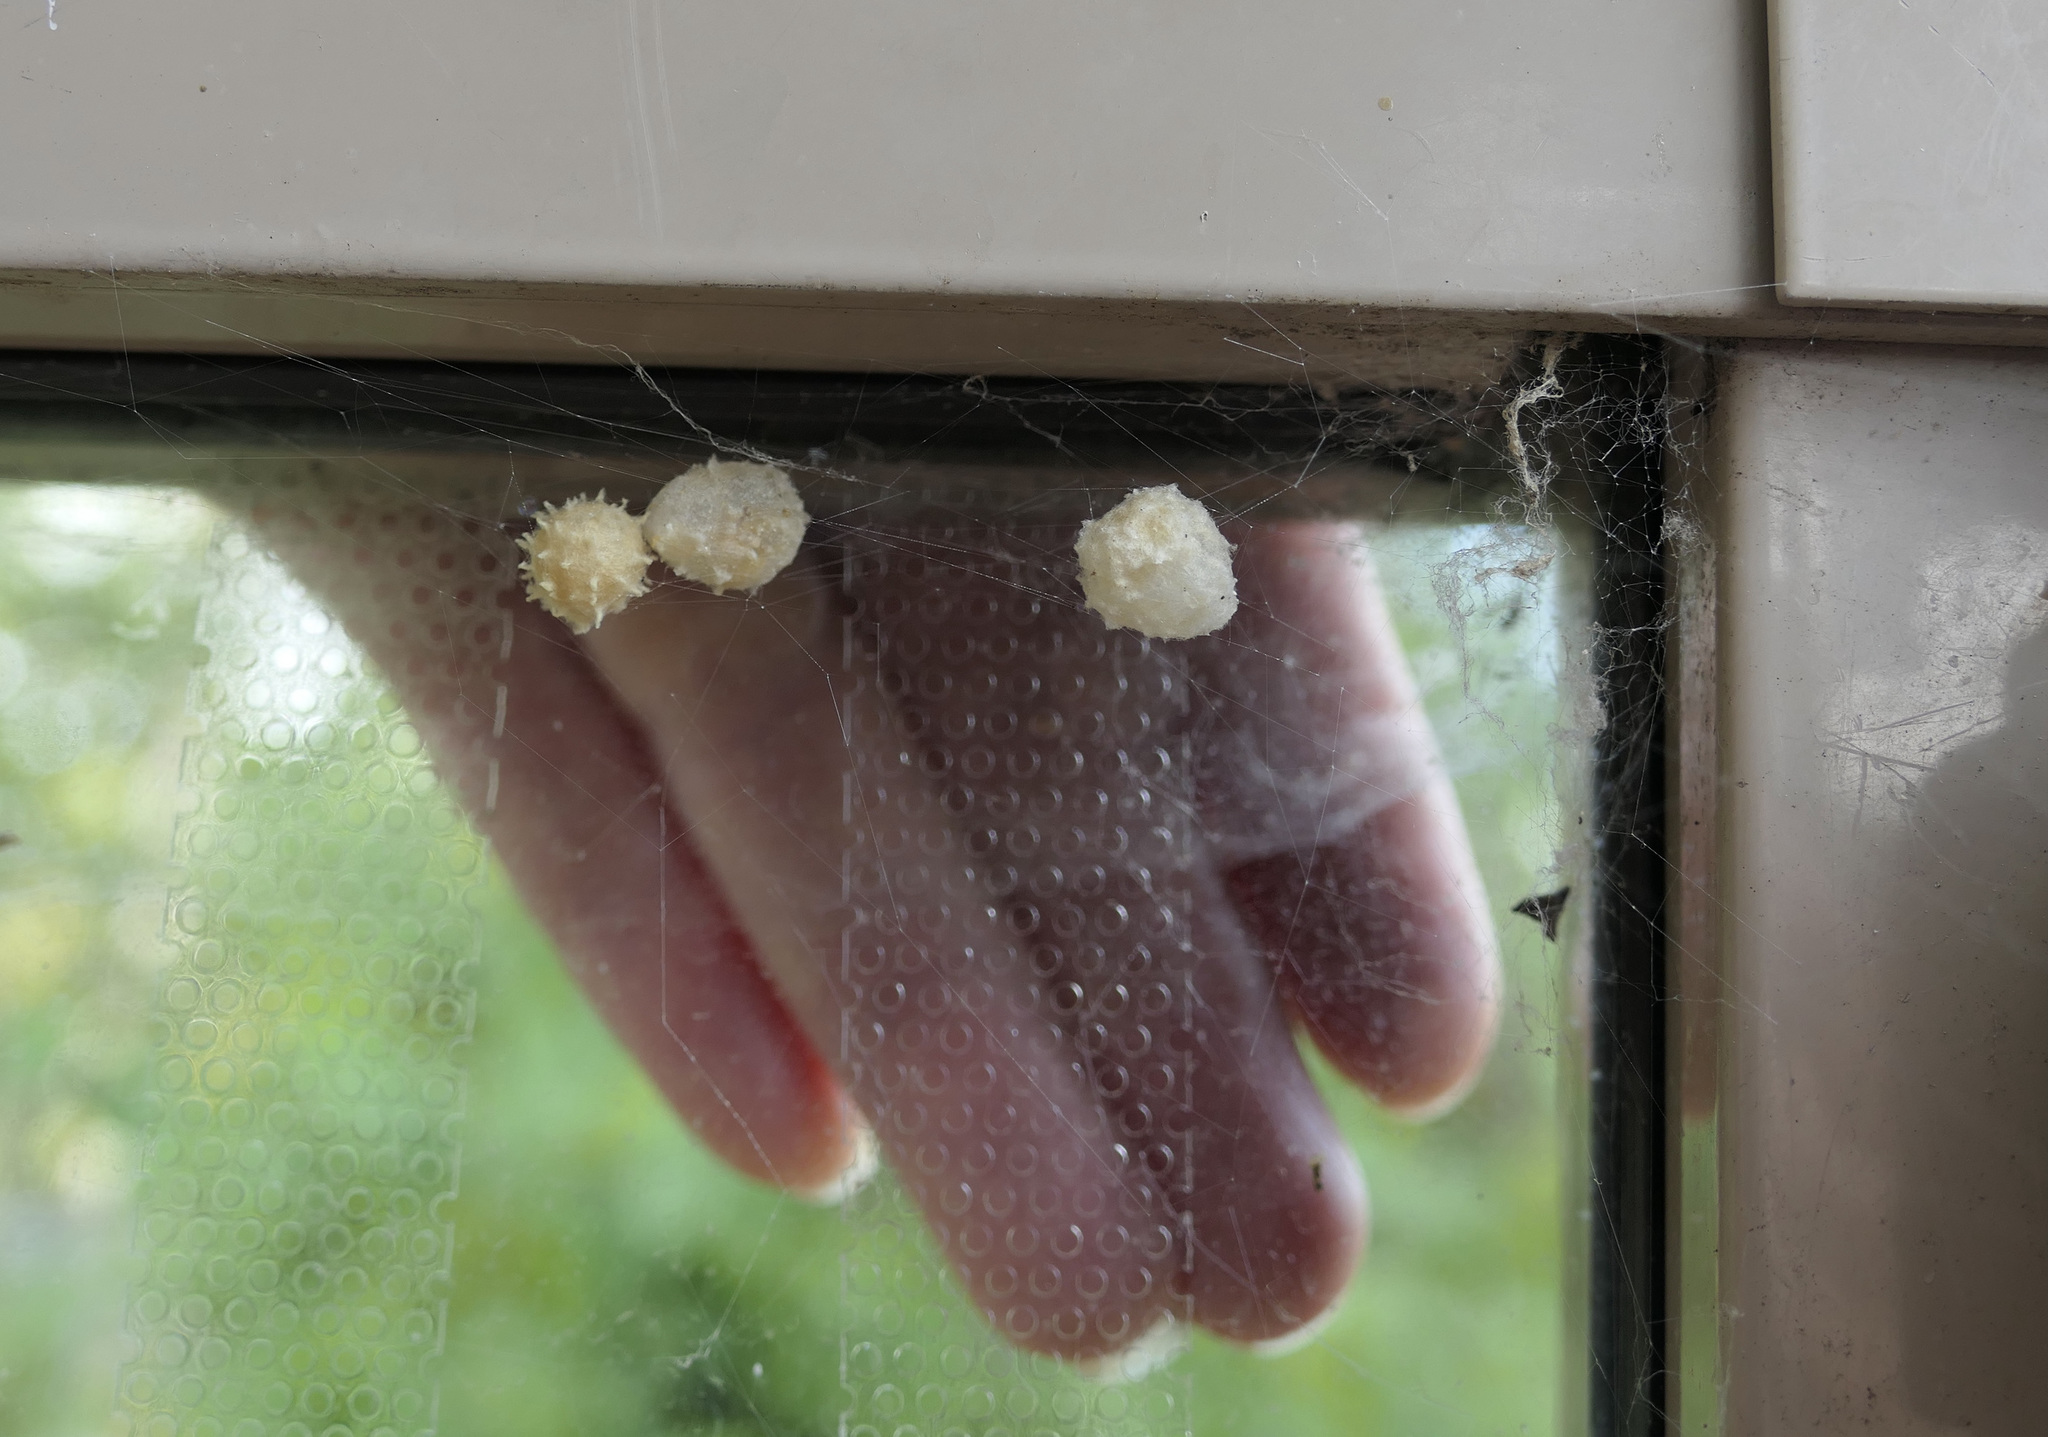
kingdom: Animalia
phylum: Arthropoda
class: Arachnida
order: Araneae
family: Theridiidae
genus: Latrodectus
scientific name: Latrodectus geometricus
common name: Brown widow spider
